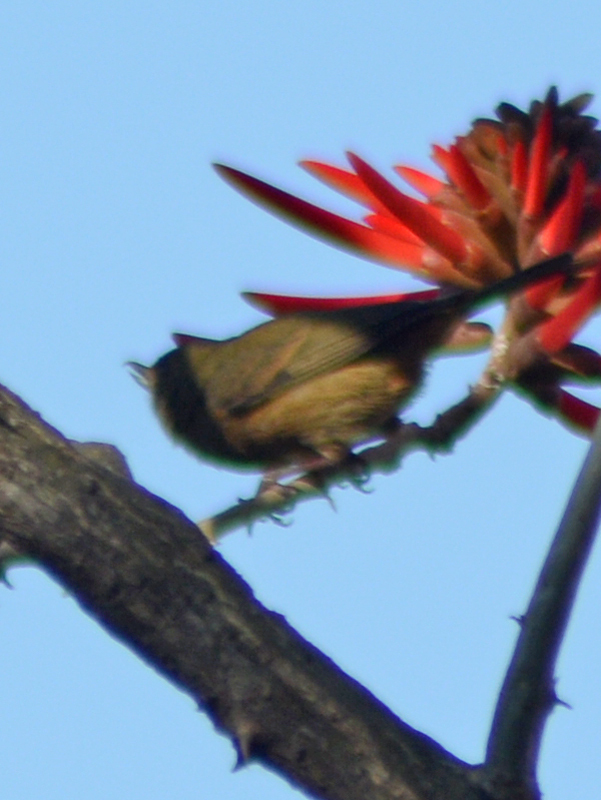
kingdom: Animalia
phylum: Chordata
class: Aves
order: Passeriformes
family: Thraupidae
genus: Diglossa
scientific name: Diglossa baritula
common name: Cinnamon-bellied flowerpiercer
